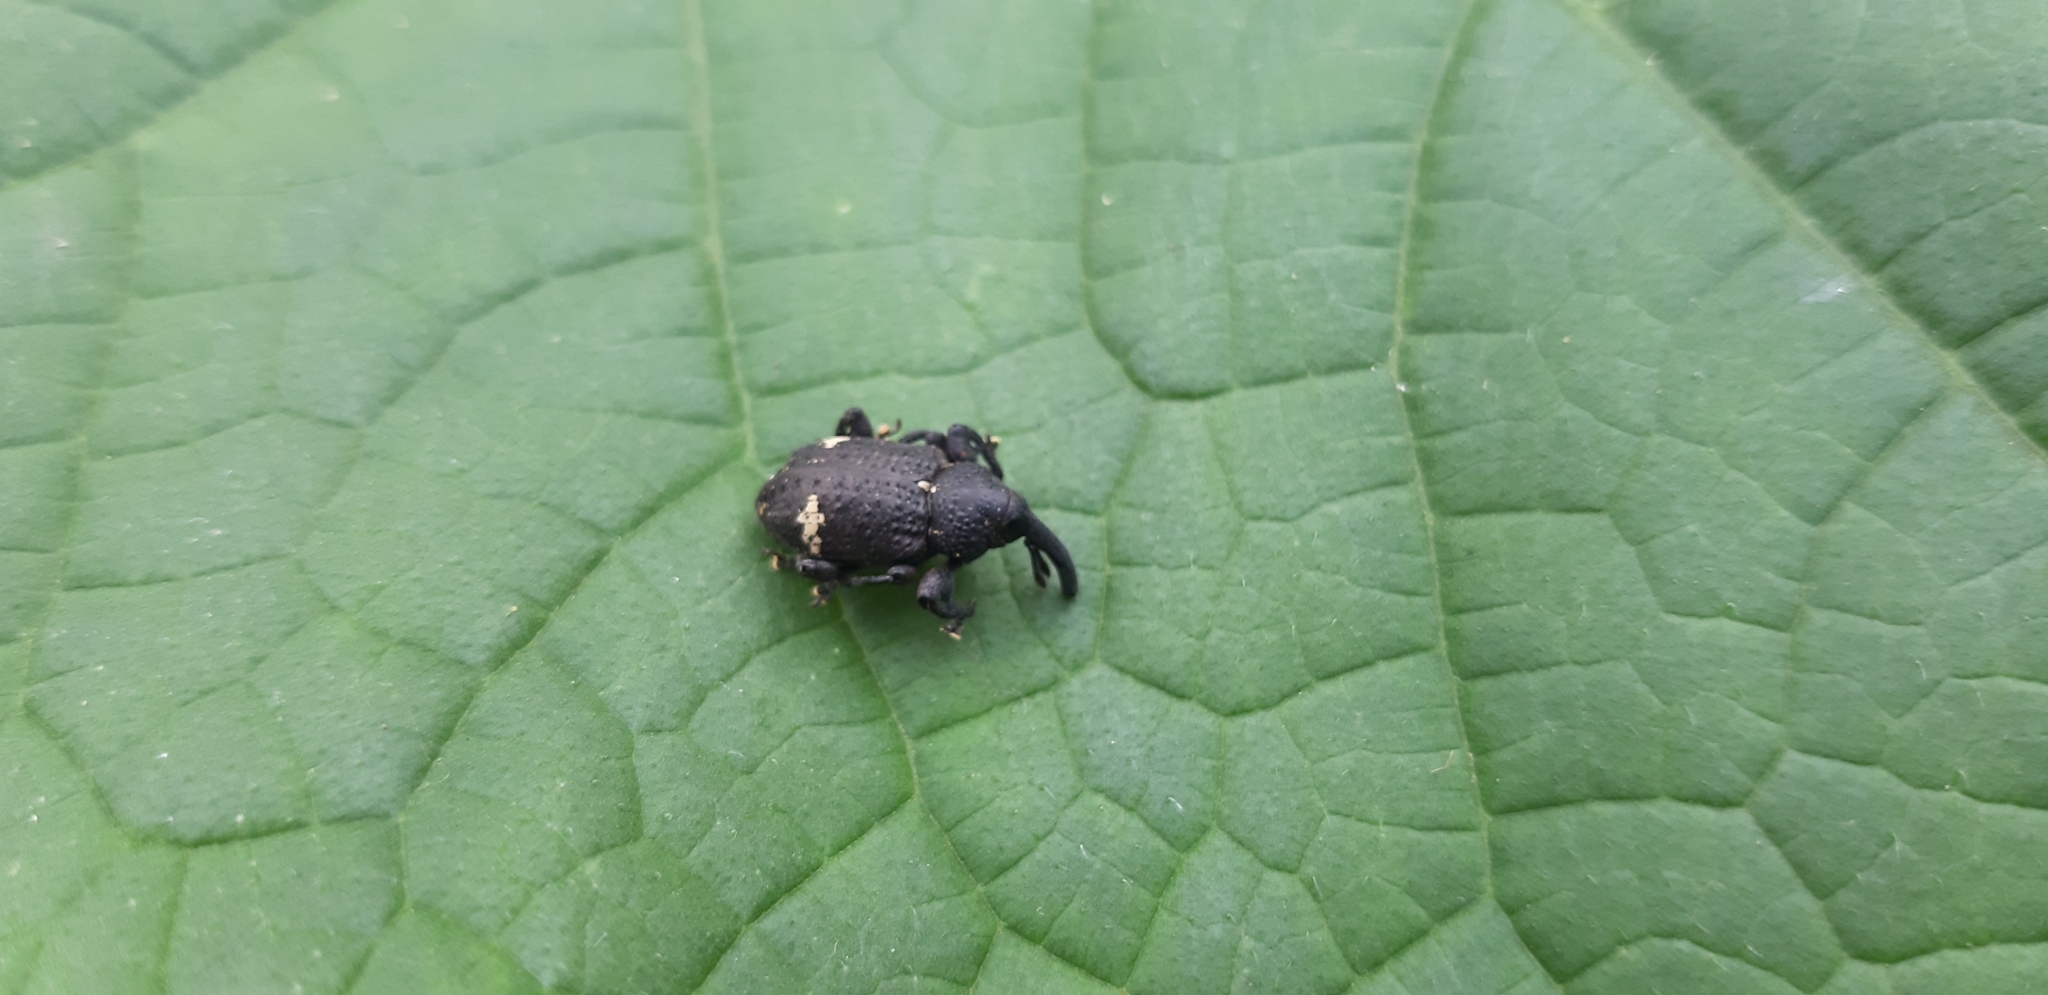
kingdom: Animalia
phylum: Arthropoda
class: Insecta
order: Coleoptera
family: Curculionidae
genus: Heilipus
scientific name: Heilipus tuberculosus
